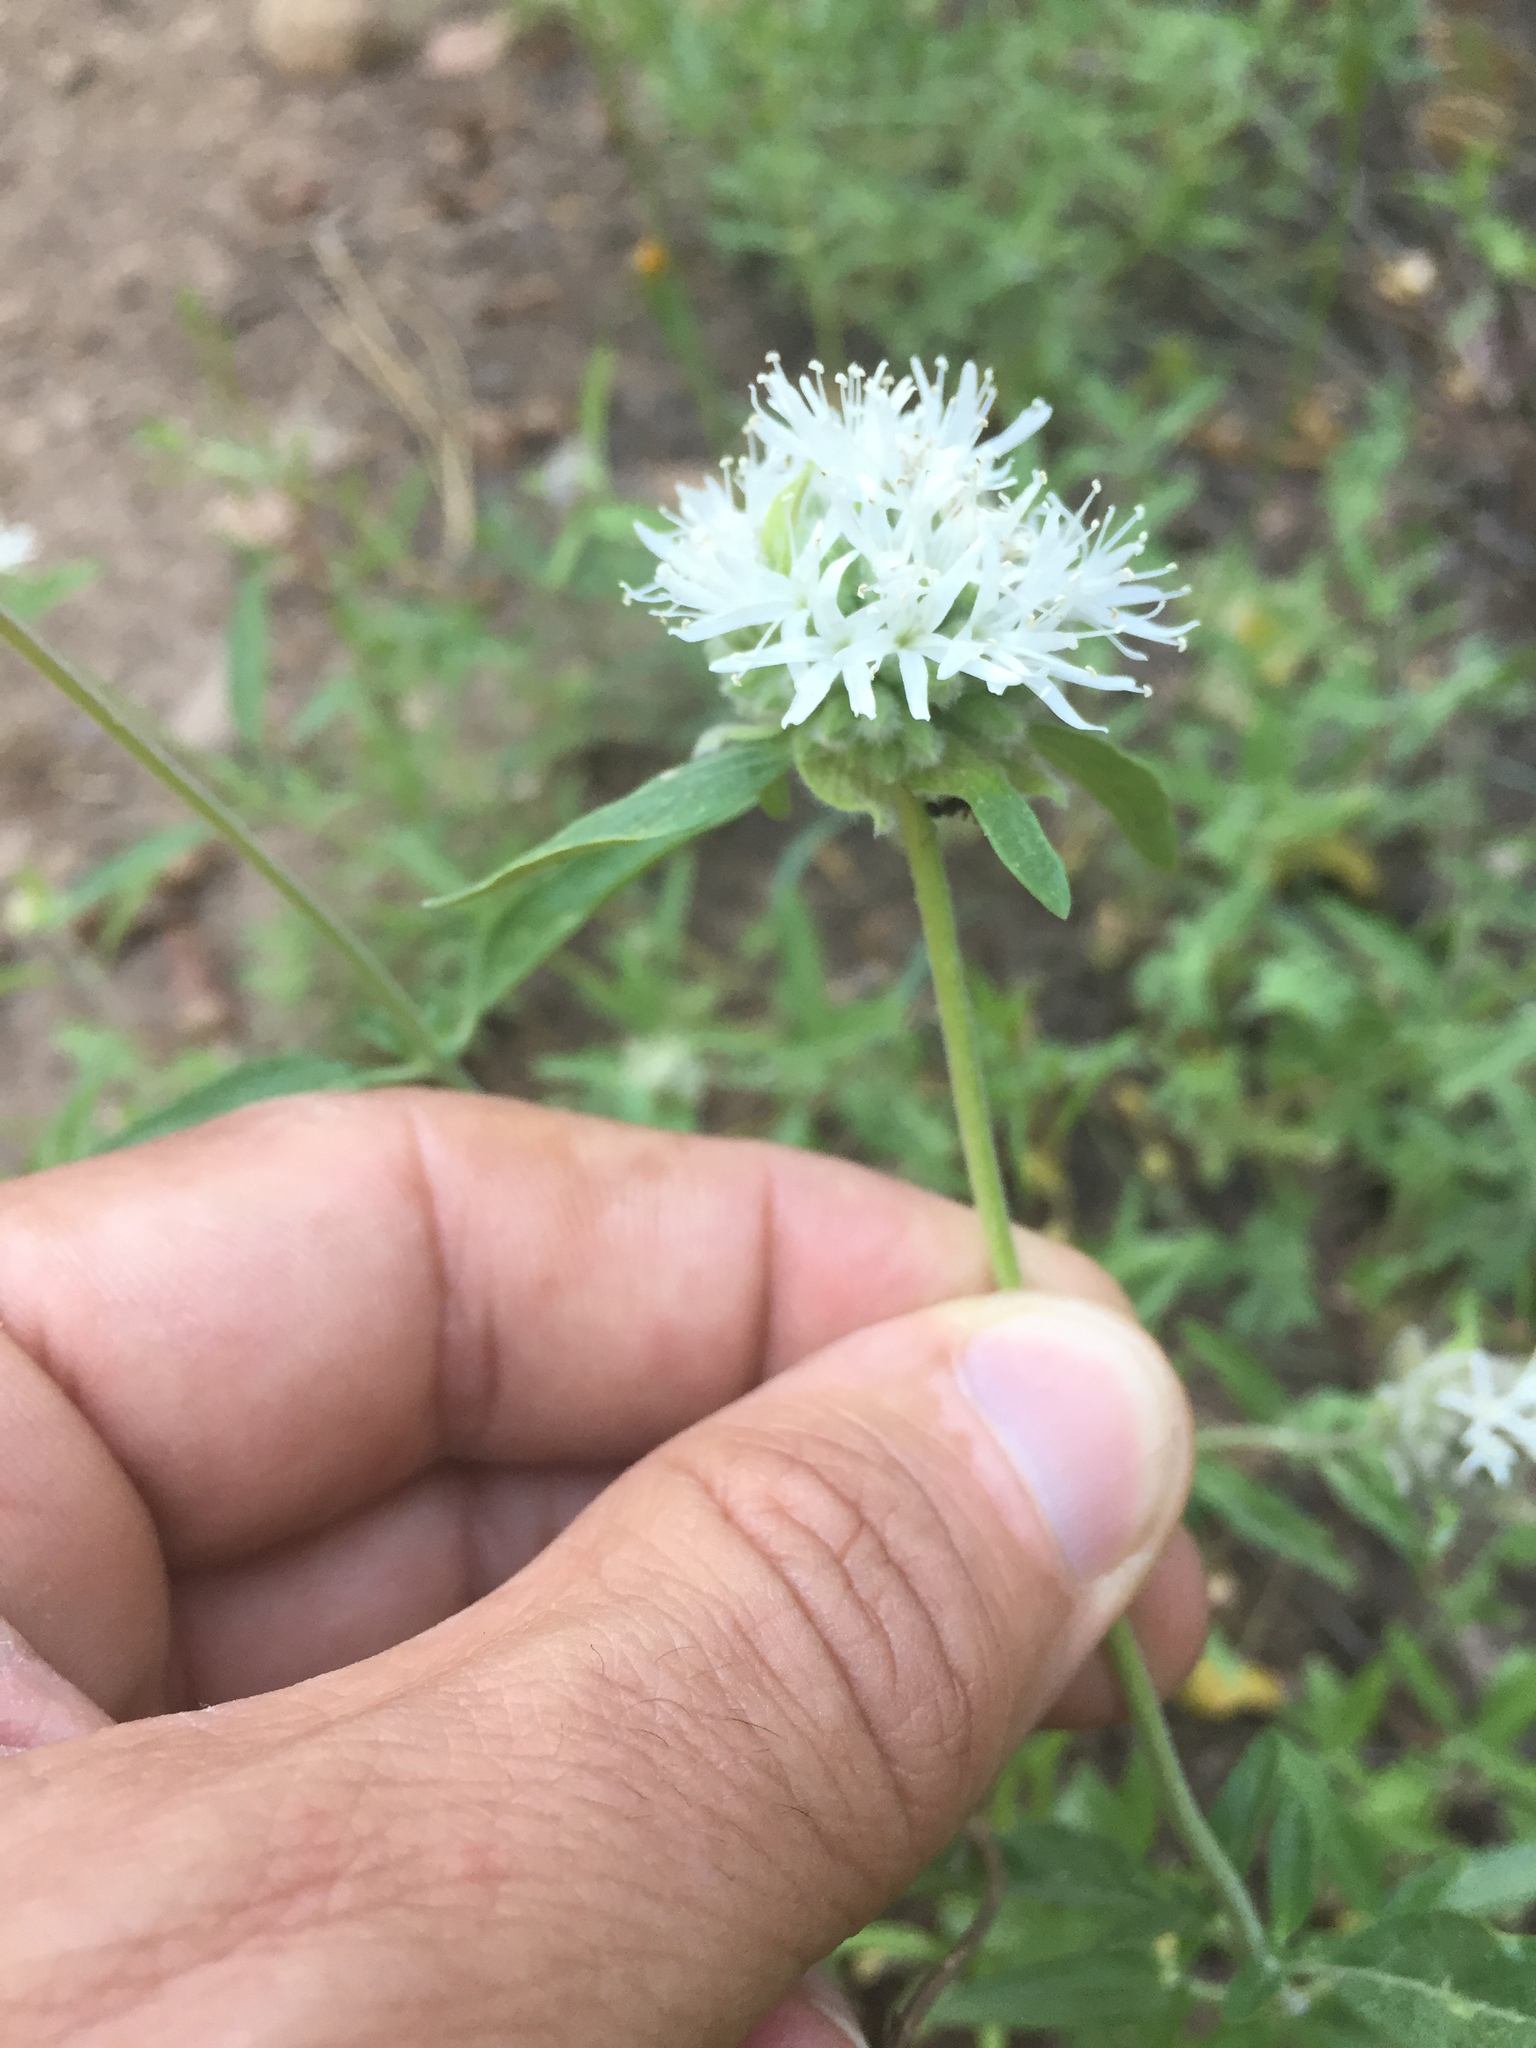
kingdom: Plantae
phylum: Tracheophyta
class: Magnoliopsida
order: Lamiales
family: Lamiaceae
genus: Monardella
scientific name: Monardella odoratissima
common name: Pacific monardella
